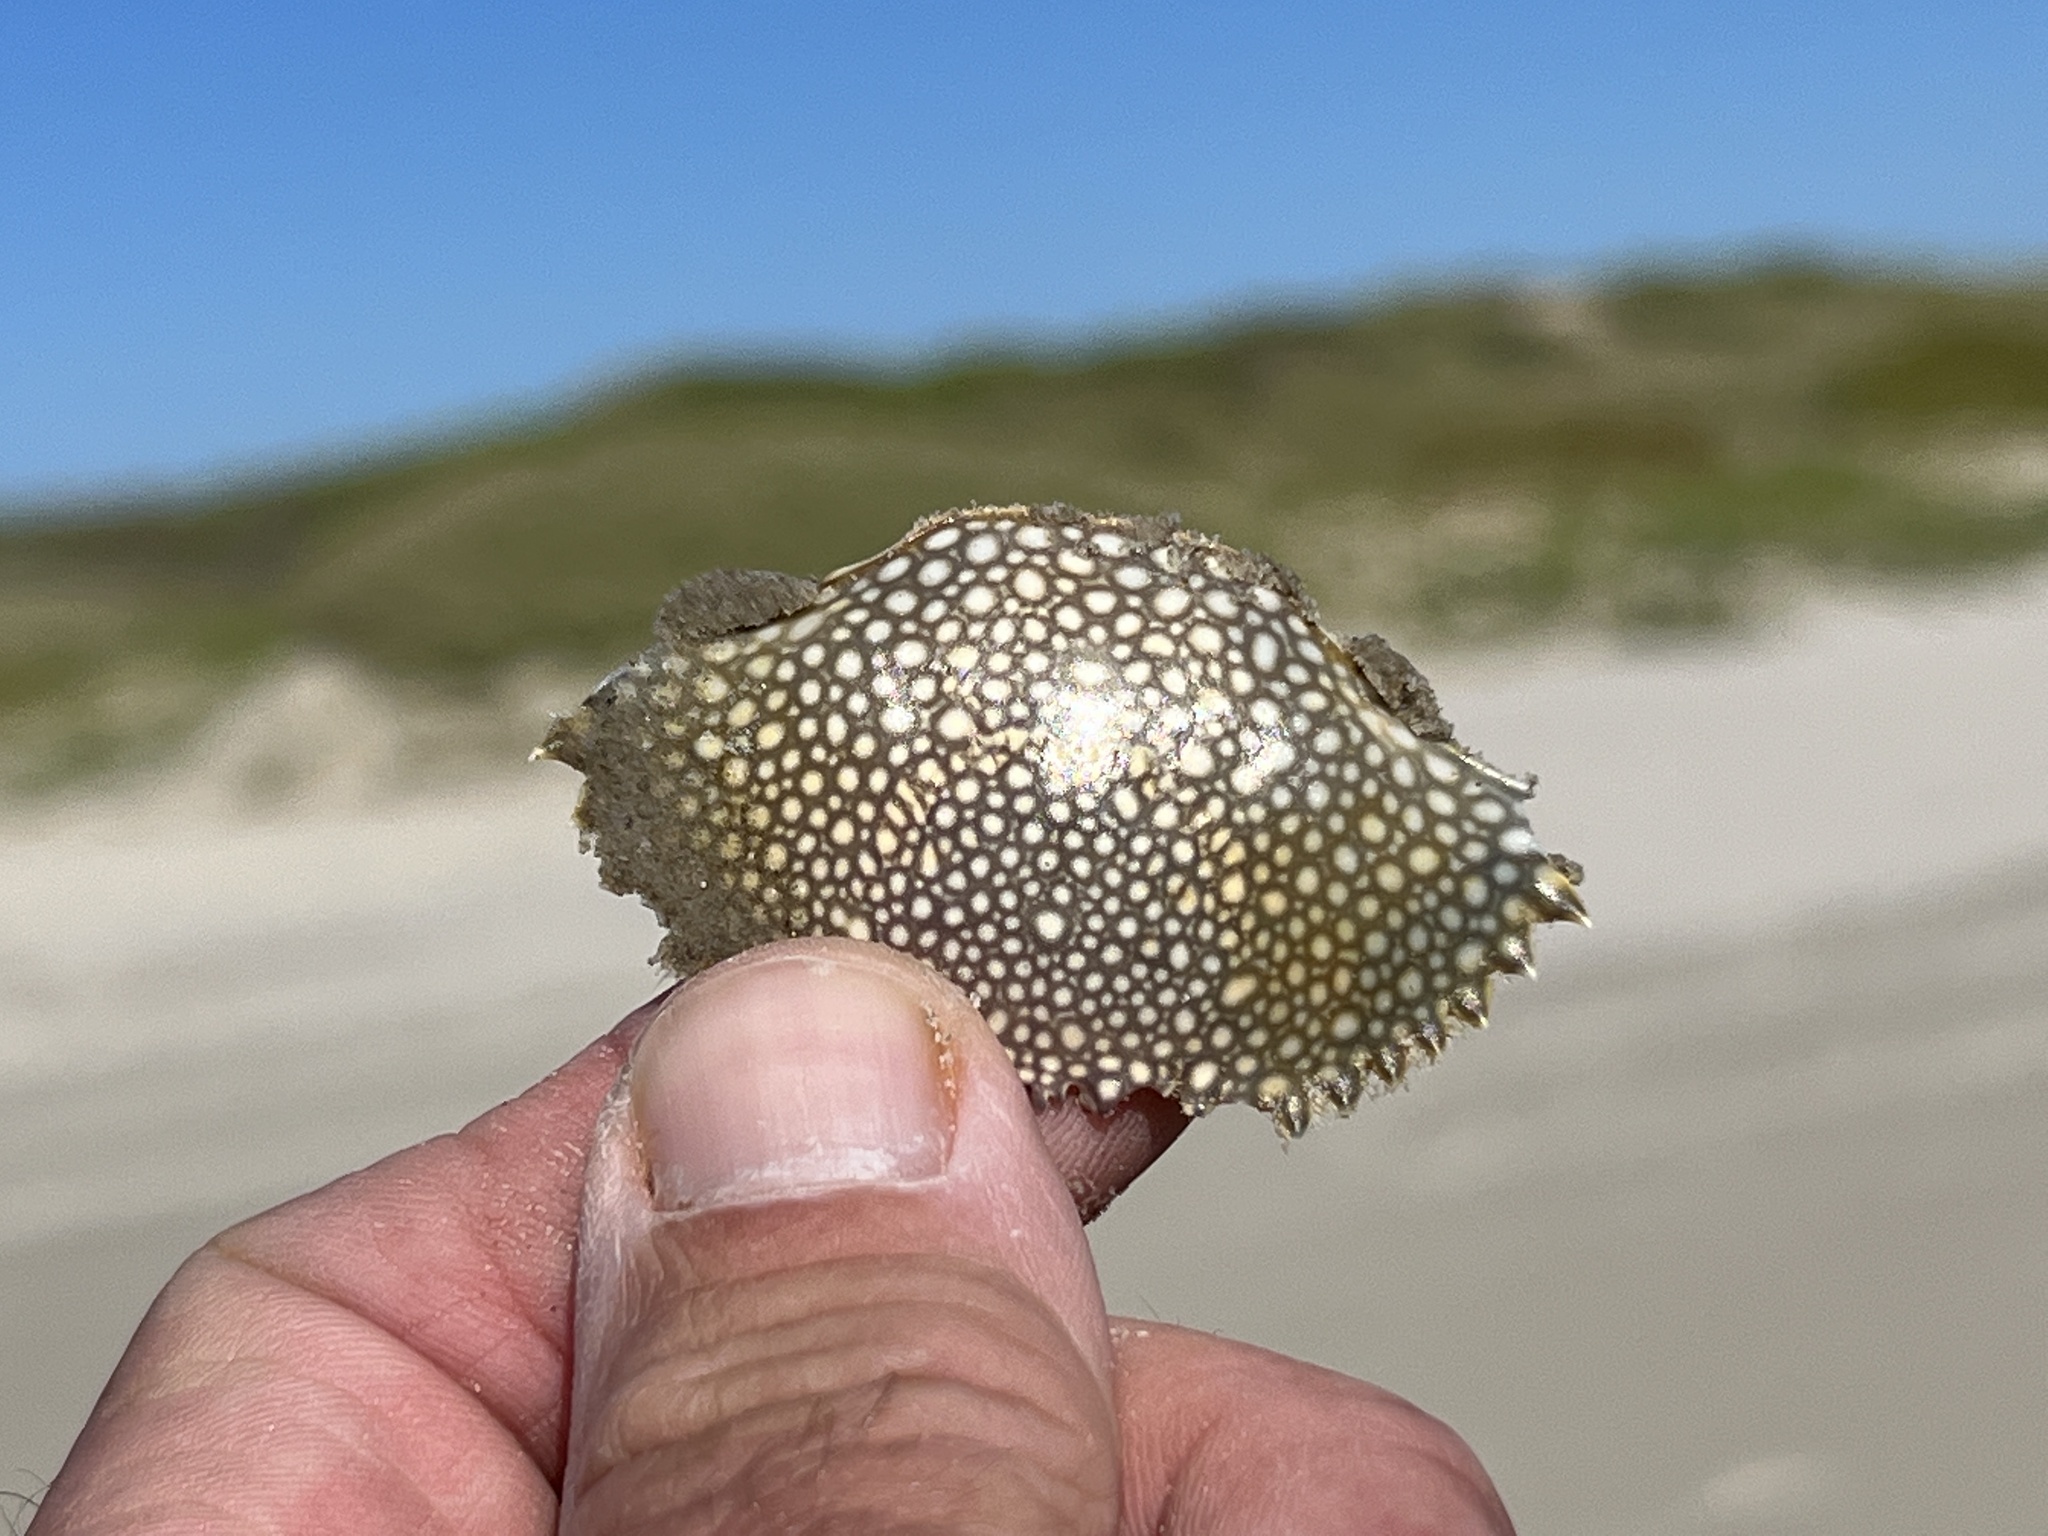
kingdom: Animalia
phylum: Arthropoda
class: Malacostraca
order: Decapoda
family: Portunidae
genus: Arenaeus
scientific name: Arenaeus cribrarius
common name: Speckled crab
